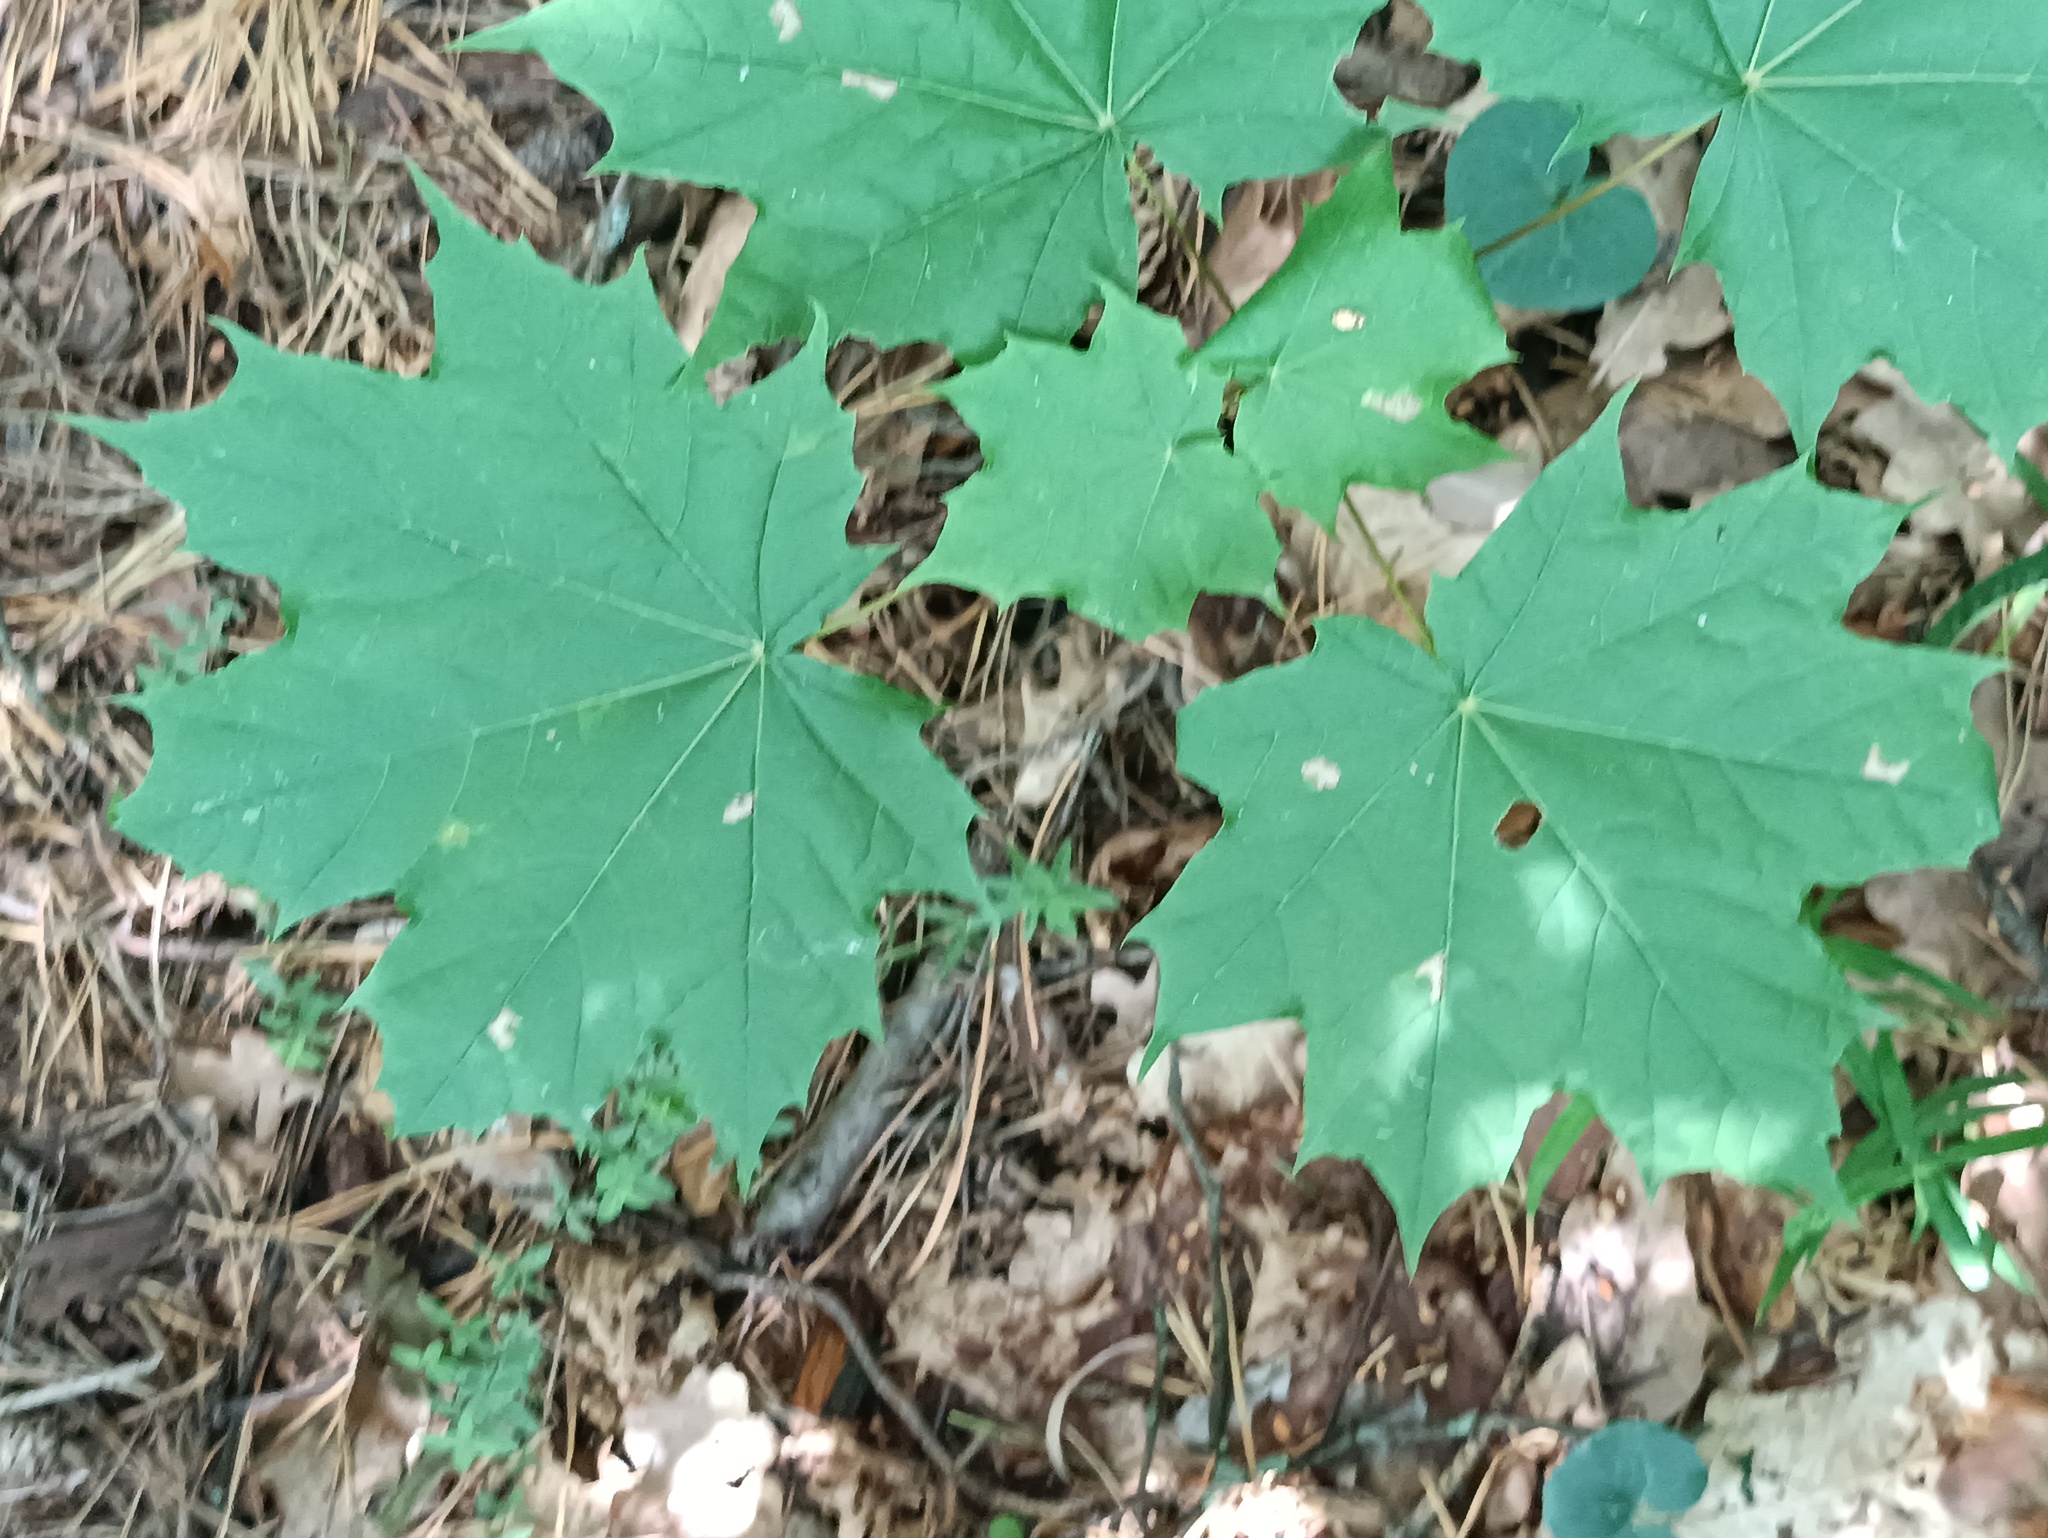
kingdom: Plantae
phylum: Tracheophyta
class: Magnoliopsida
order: Sapindales
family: Sapindaceae
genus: Acer
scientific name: Acer platanoides
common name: Norway maple
